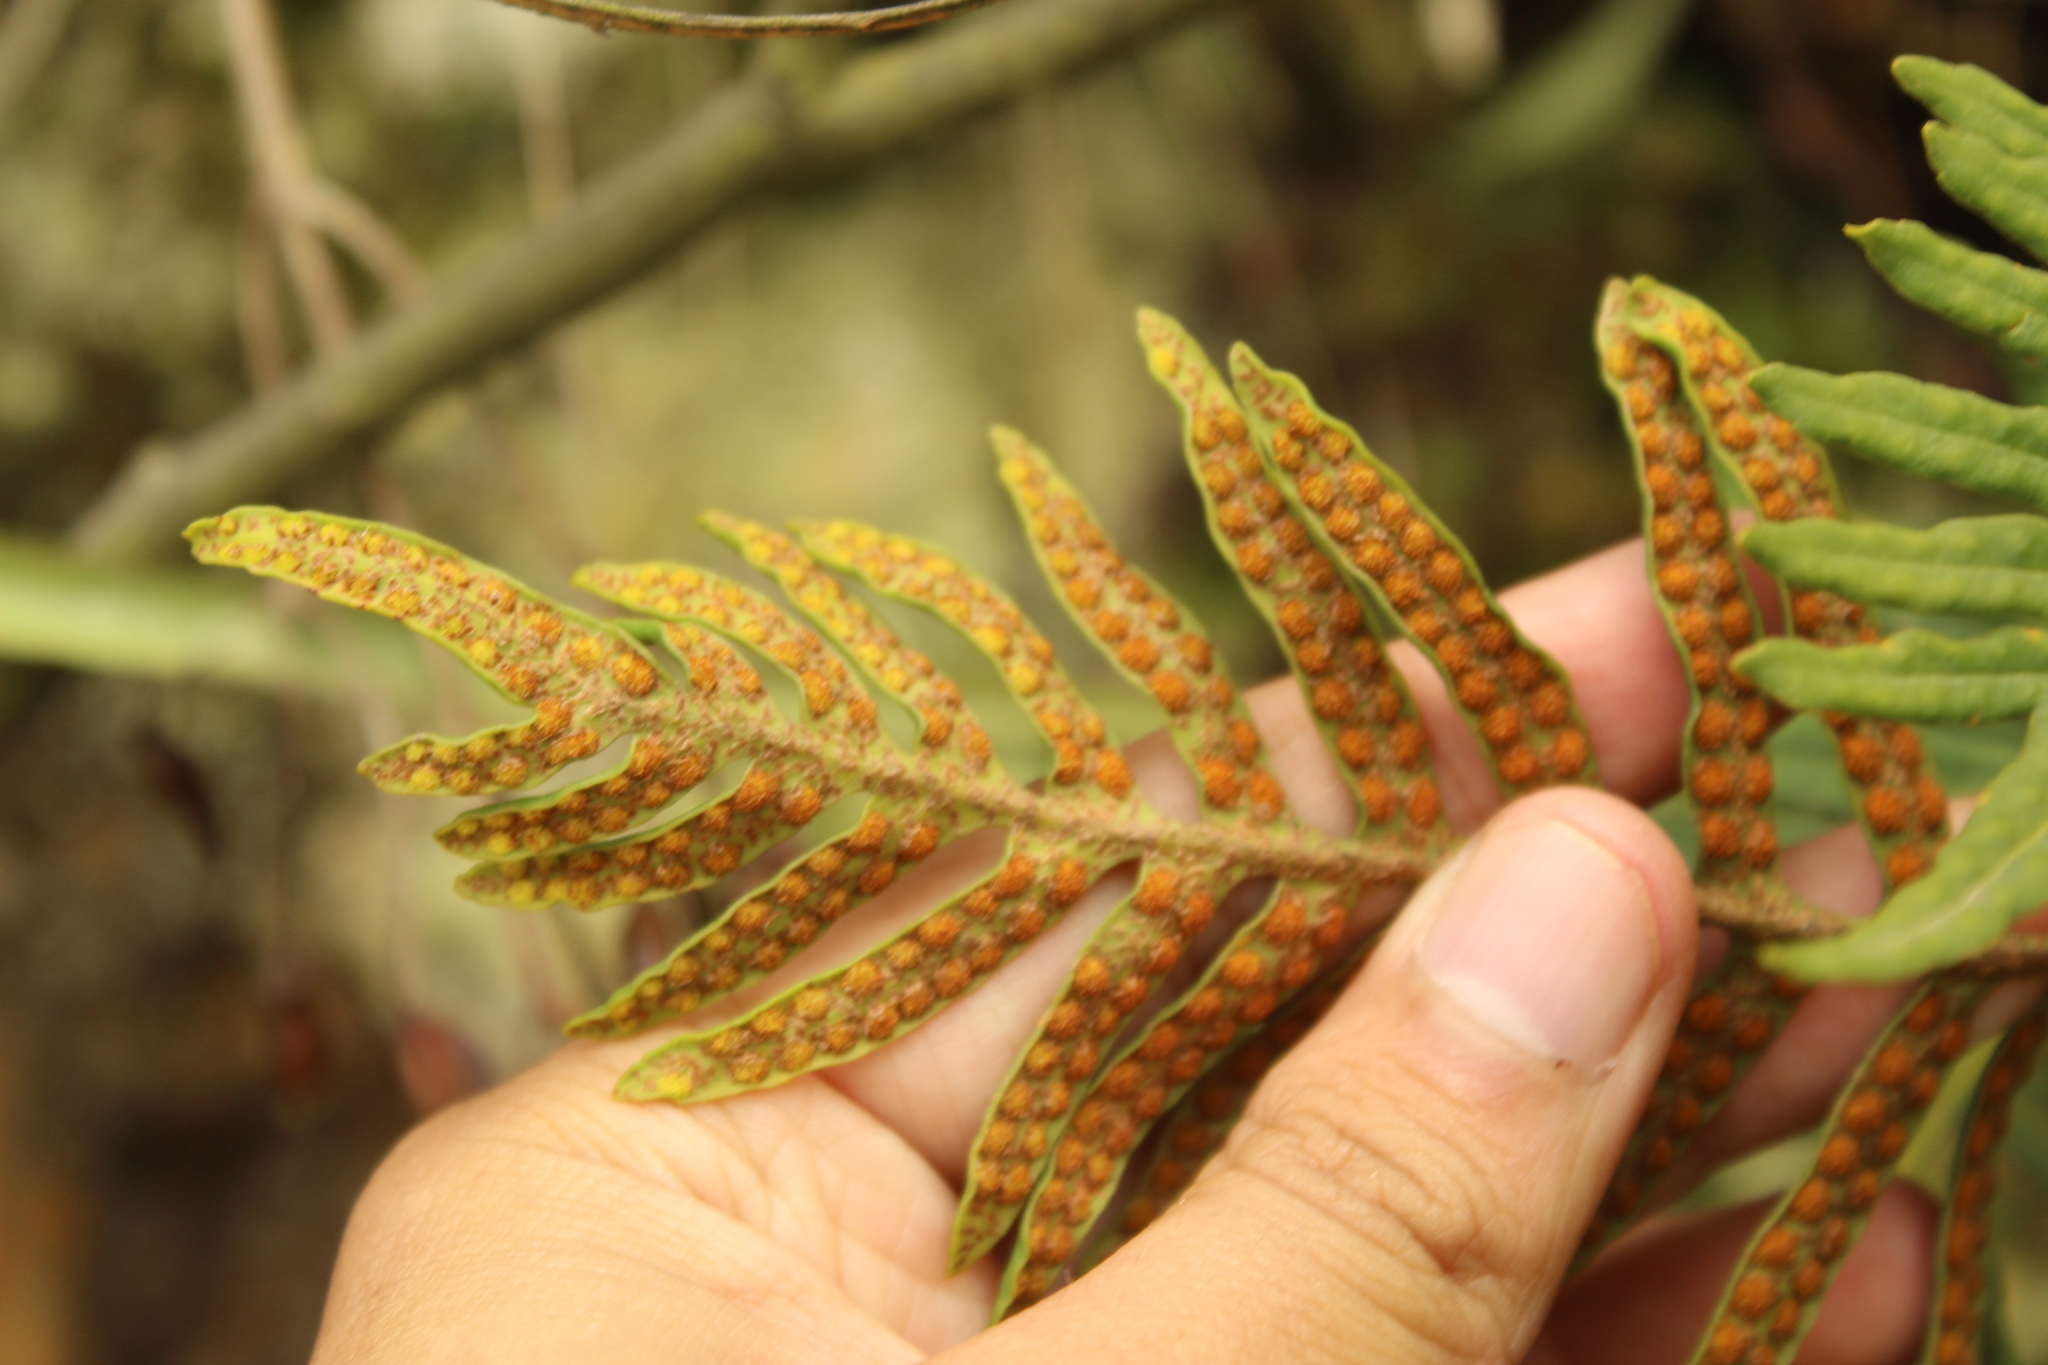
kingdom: Plantae
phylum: Tracheophyta
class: Polypodiopsida
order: Polypodiales
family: Polypodiaceae
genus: Pleopeltis
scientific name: Pleopeltis orientalis
